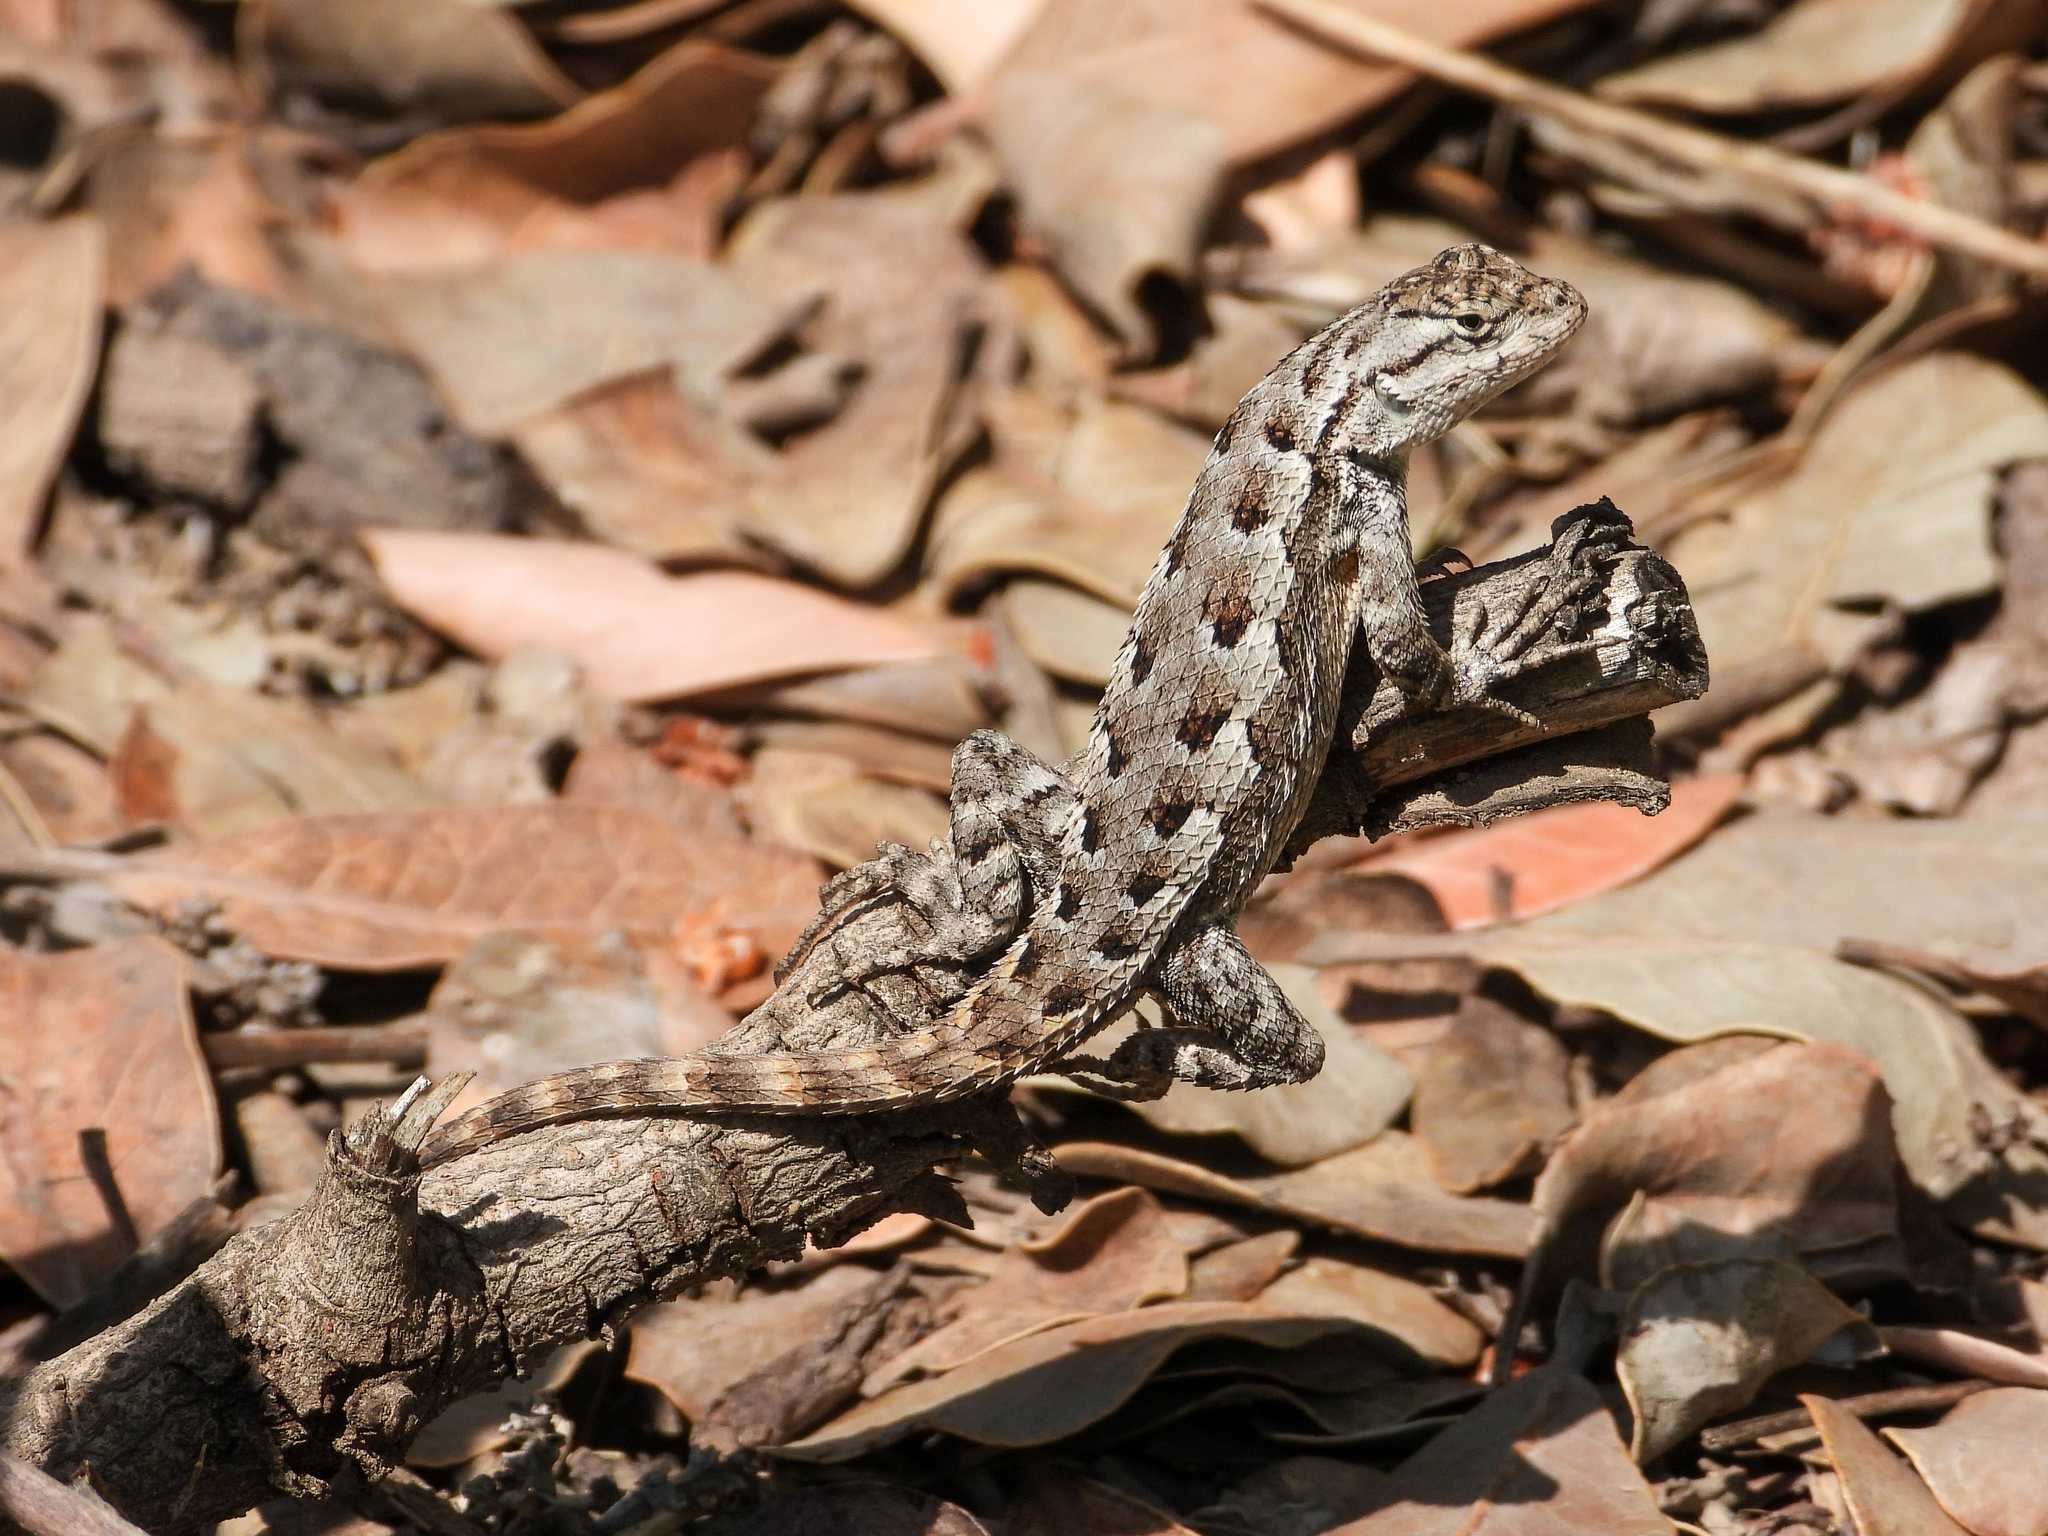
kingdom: Animalia
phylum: Chordata
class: Squamata
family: Phrynosomatidae
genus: Sceloporus
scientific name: Sceloporus occidentalis
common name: Western fence lizard
